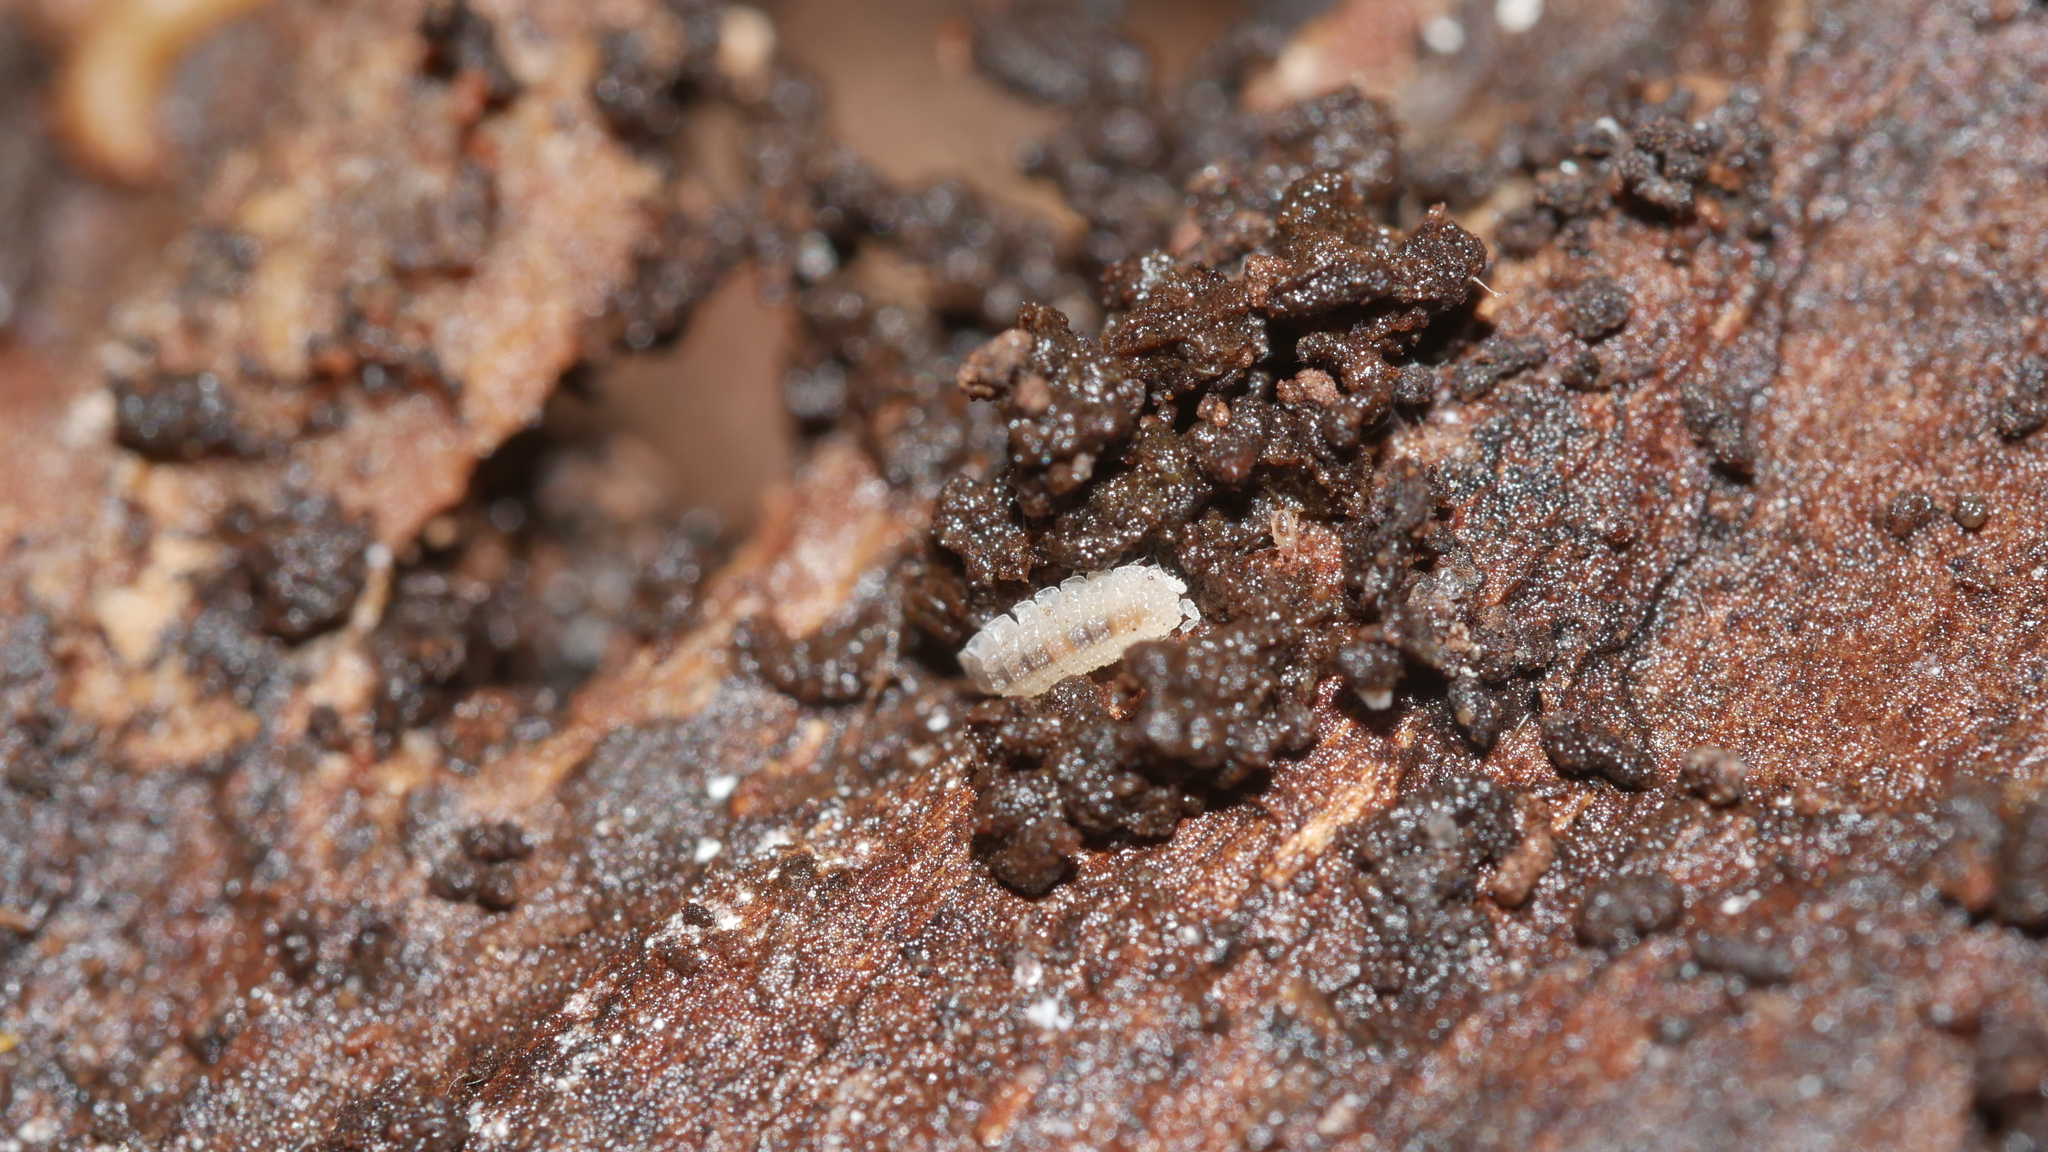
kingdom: Animalia
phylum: Arthropoda
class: Malacostraca
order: Isopoda
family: Trichoniscidae
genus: Haplophthalmus
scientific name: Haplophthalmus danicus
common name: Pillbug
